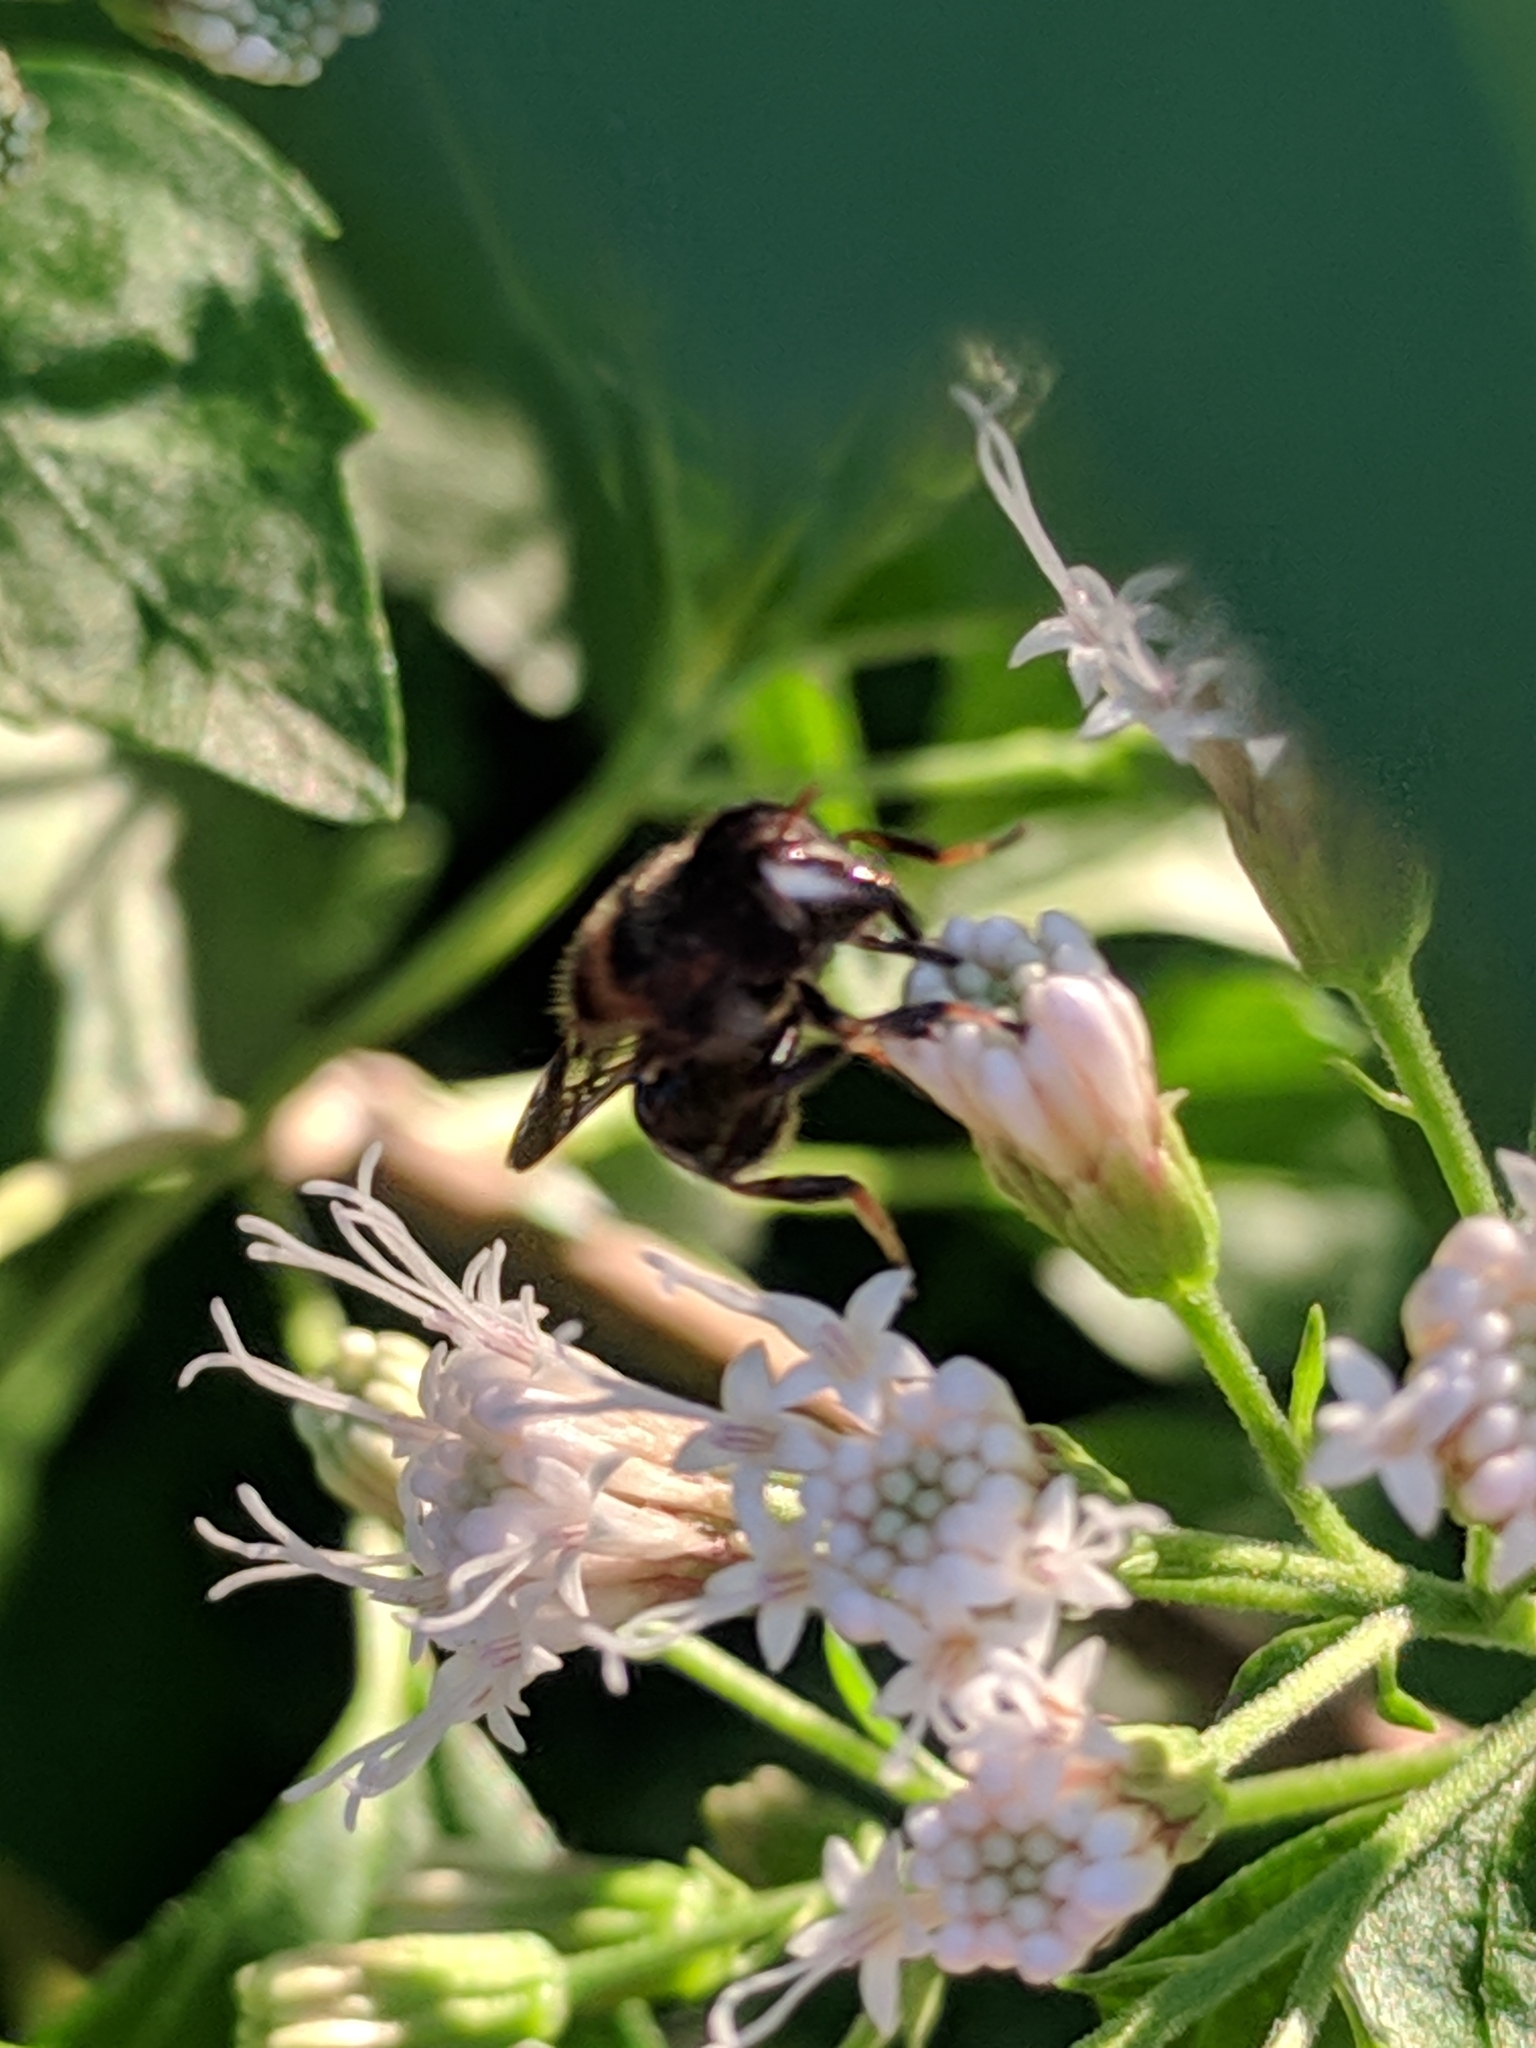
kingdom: Animalia
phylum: Arthropoda
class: Insecta
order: Diptera
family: Syrphidae
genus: Copestylum
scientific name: Copestylum tamaulipanum
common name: Syrphid fly
